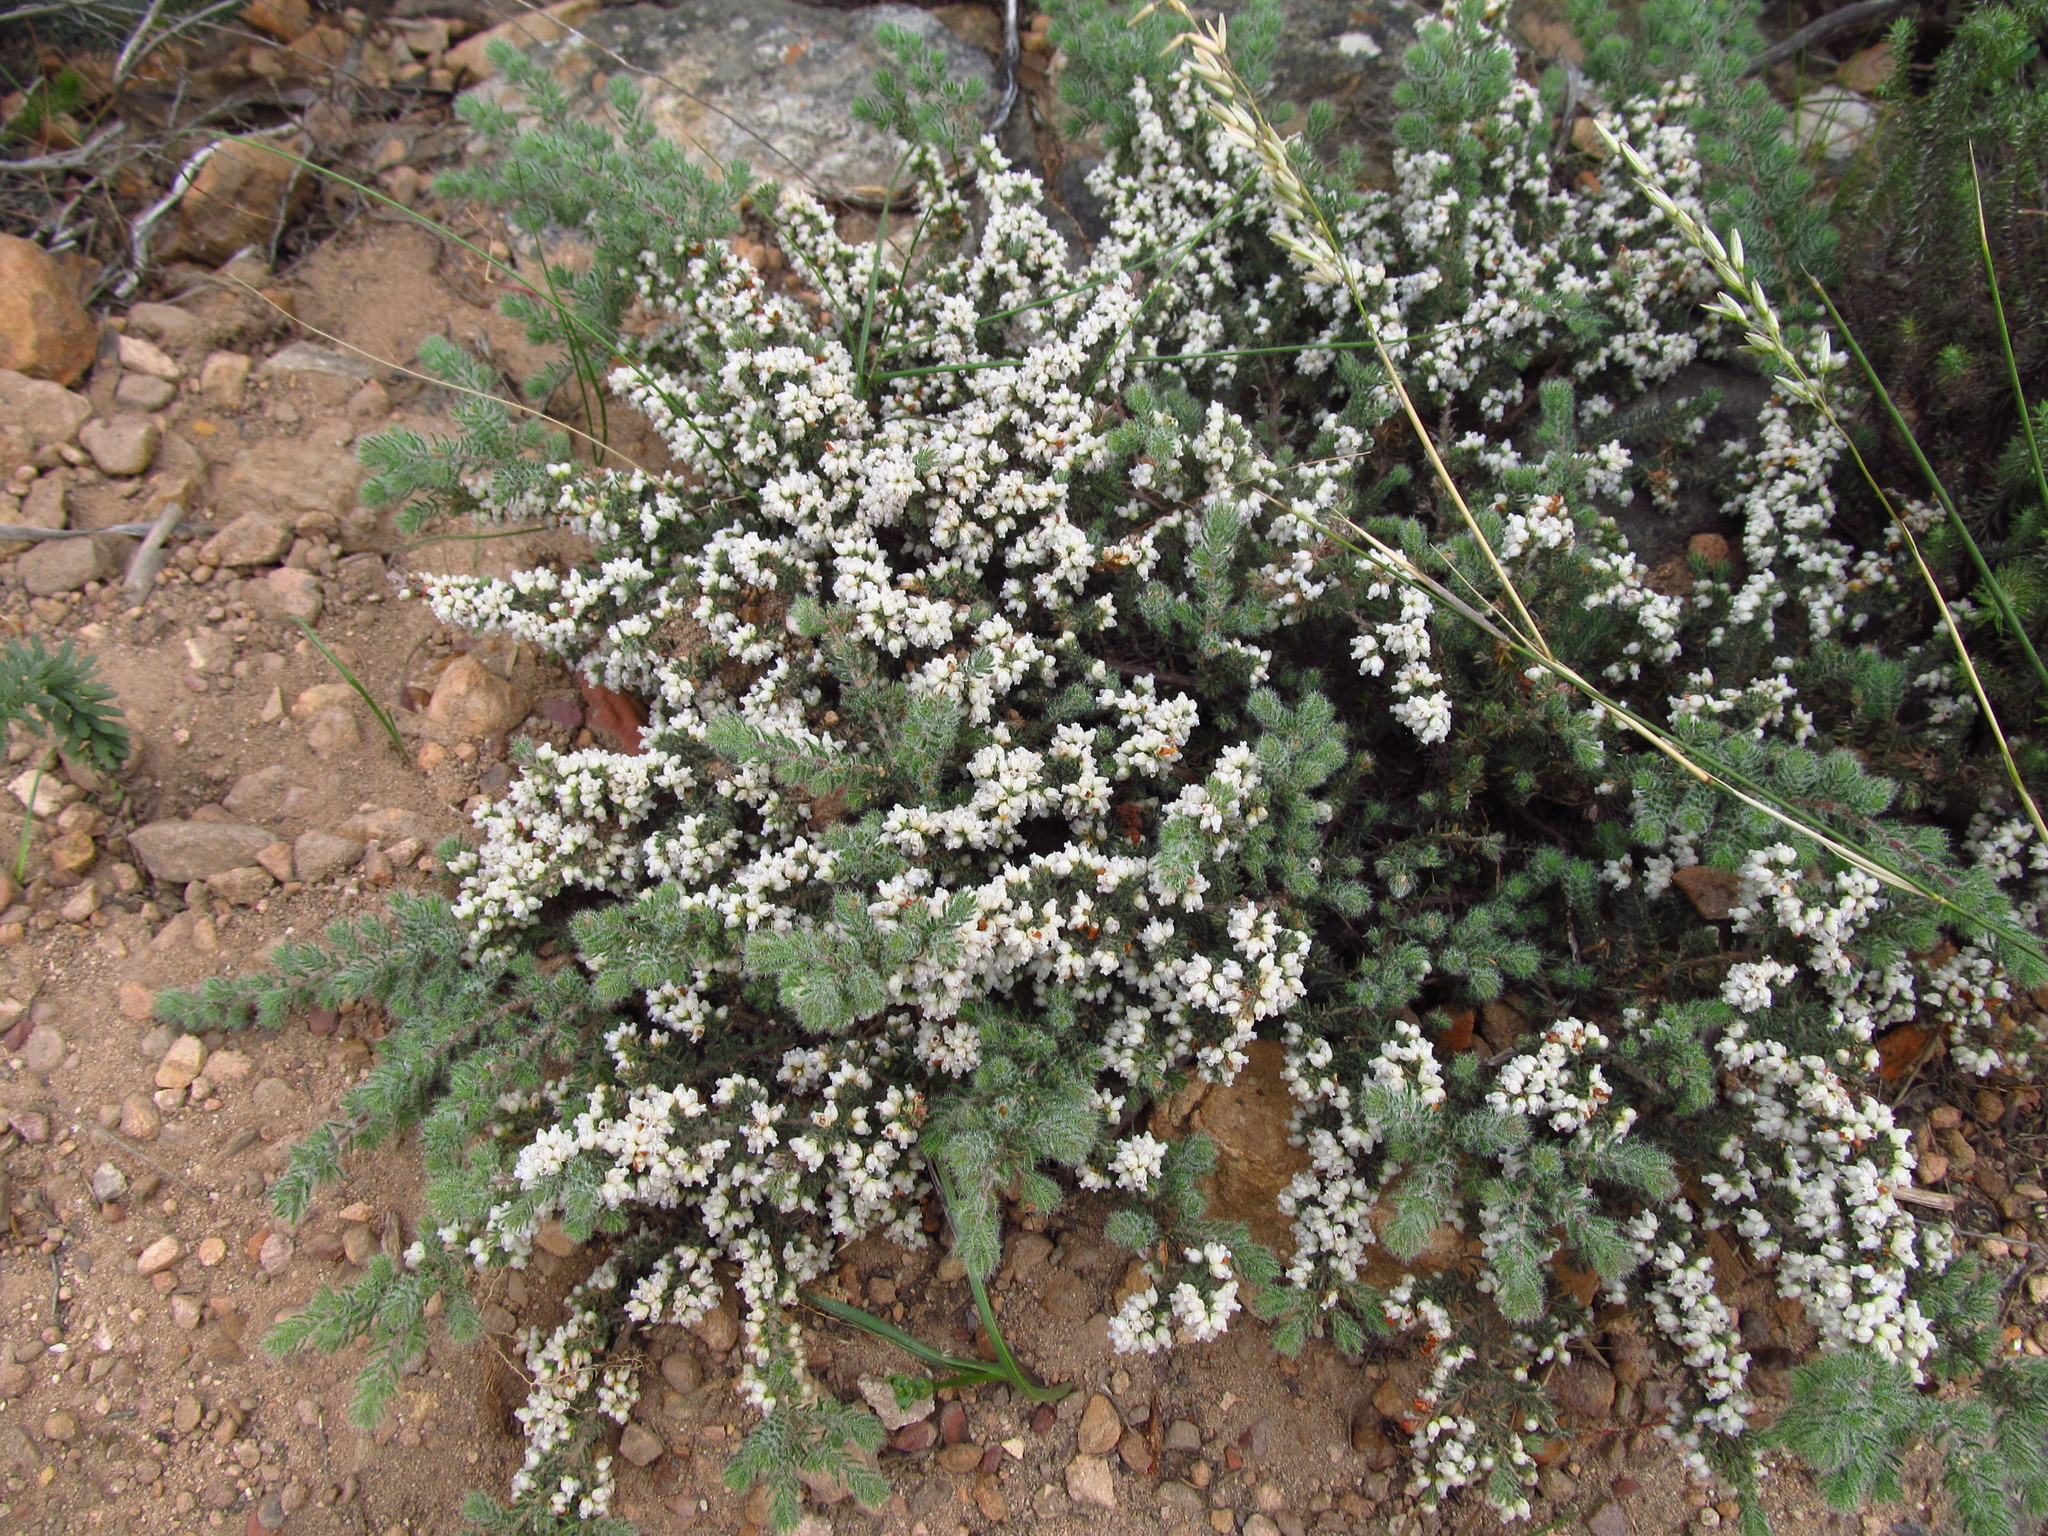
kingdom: Plantae
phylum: Tracheophyta
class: Magnoliopsida
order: Ericales
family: Ericaceae
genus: Erica
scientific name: Erica totta
